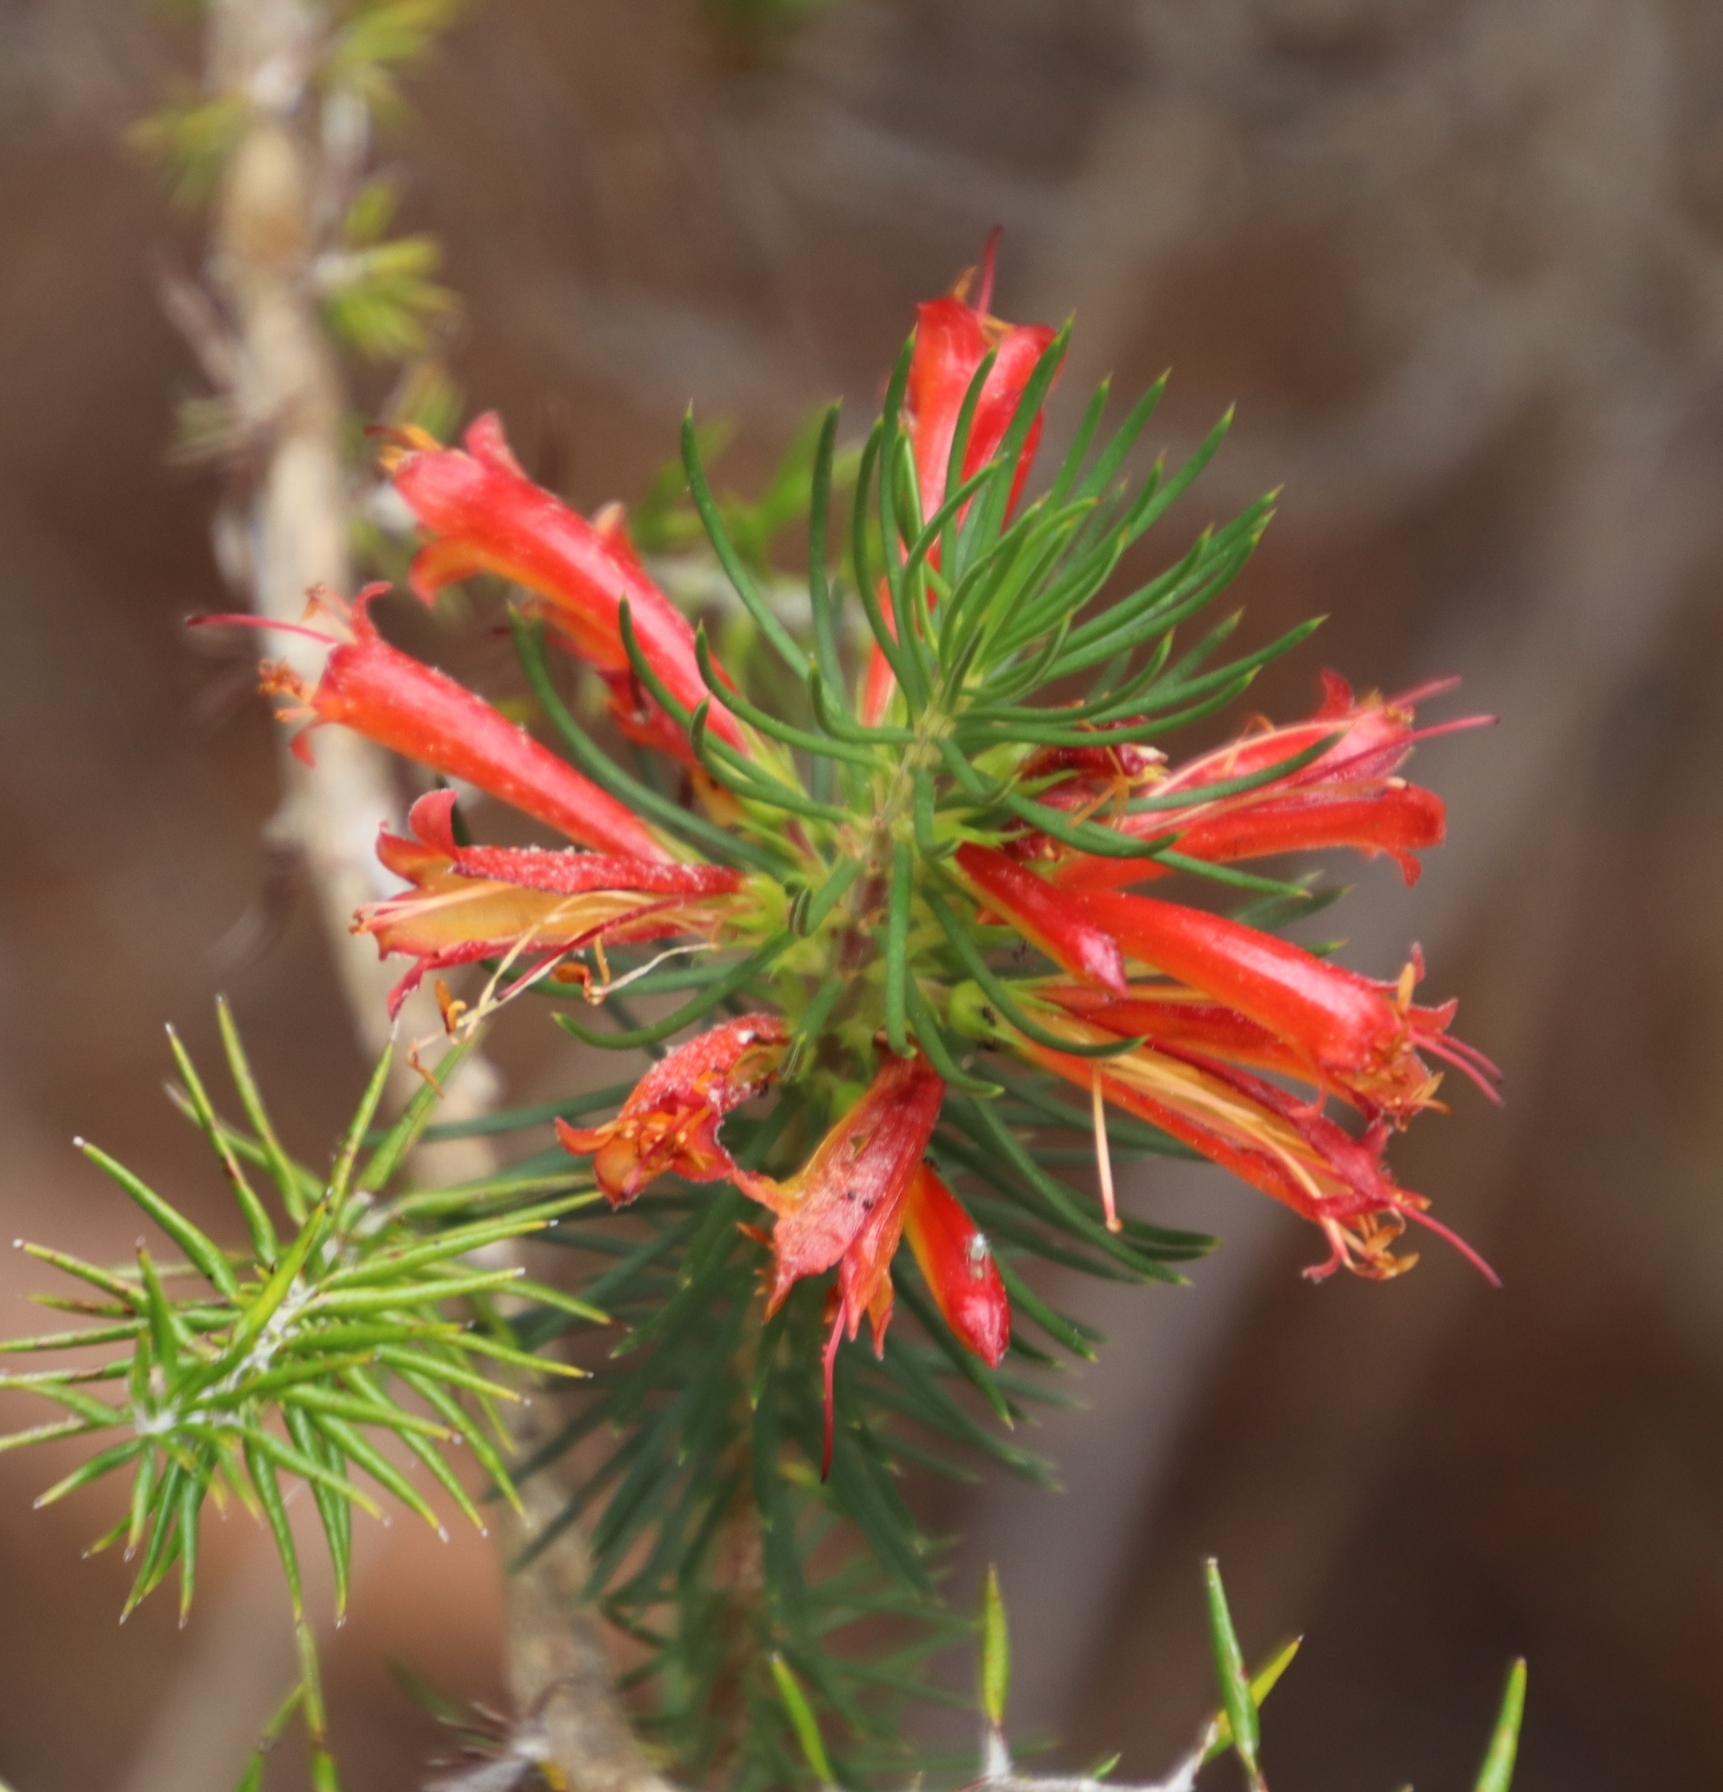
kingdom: Plantae
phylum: Tracheophyta
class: Magnoliopsida
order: Ericales
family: Ericaceae
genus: Erica
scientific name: Erica grandiflora
